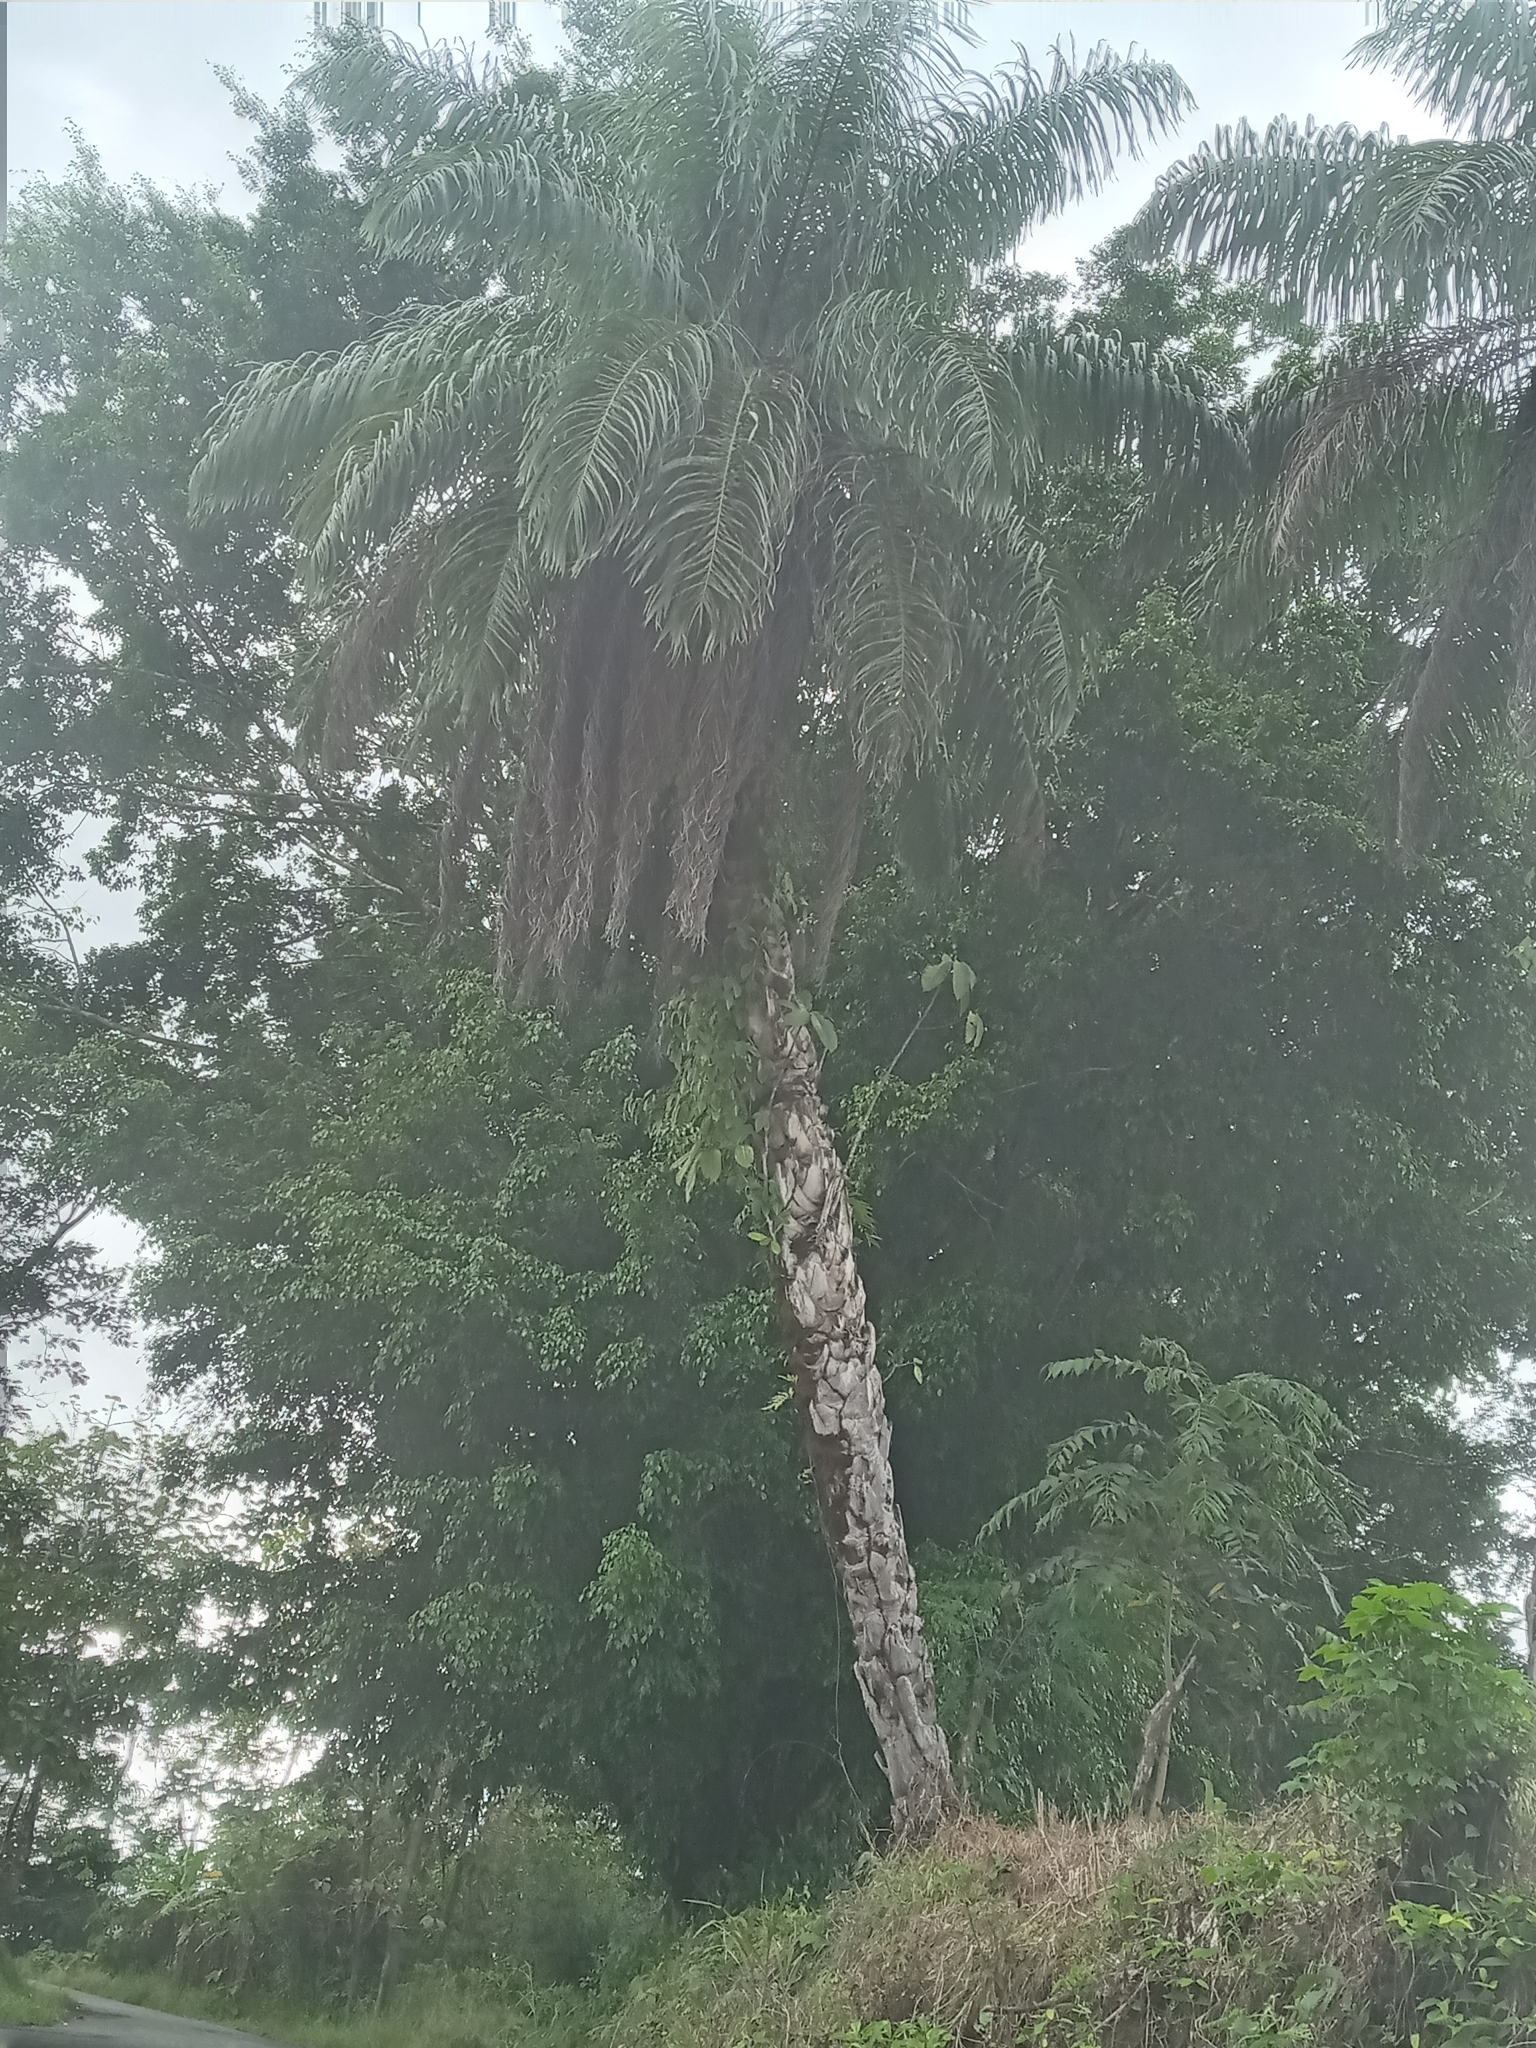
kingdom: Plantae
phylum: Tracheophyta
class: Liliopsida
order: Arecales
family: Arecaceae
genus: Acrocomia
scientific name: Acrocomia aculeata
